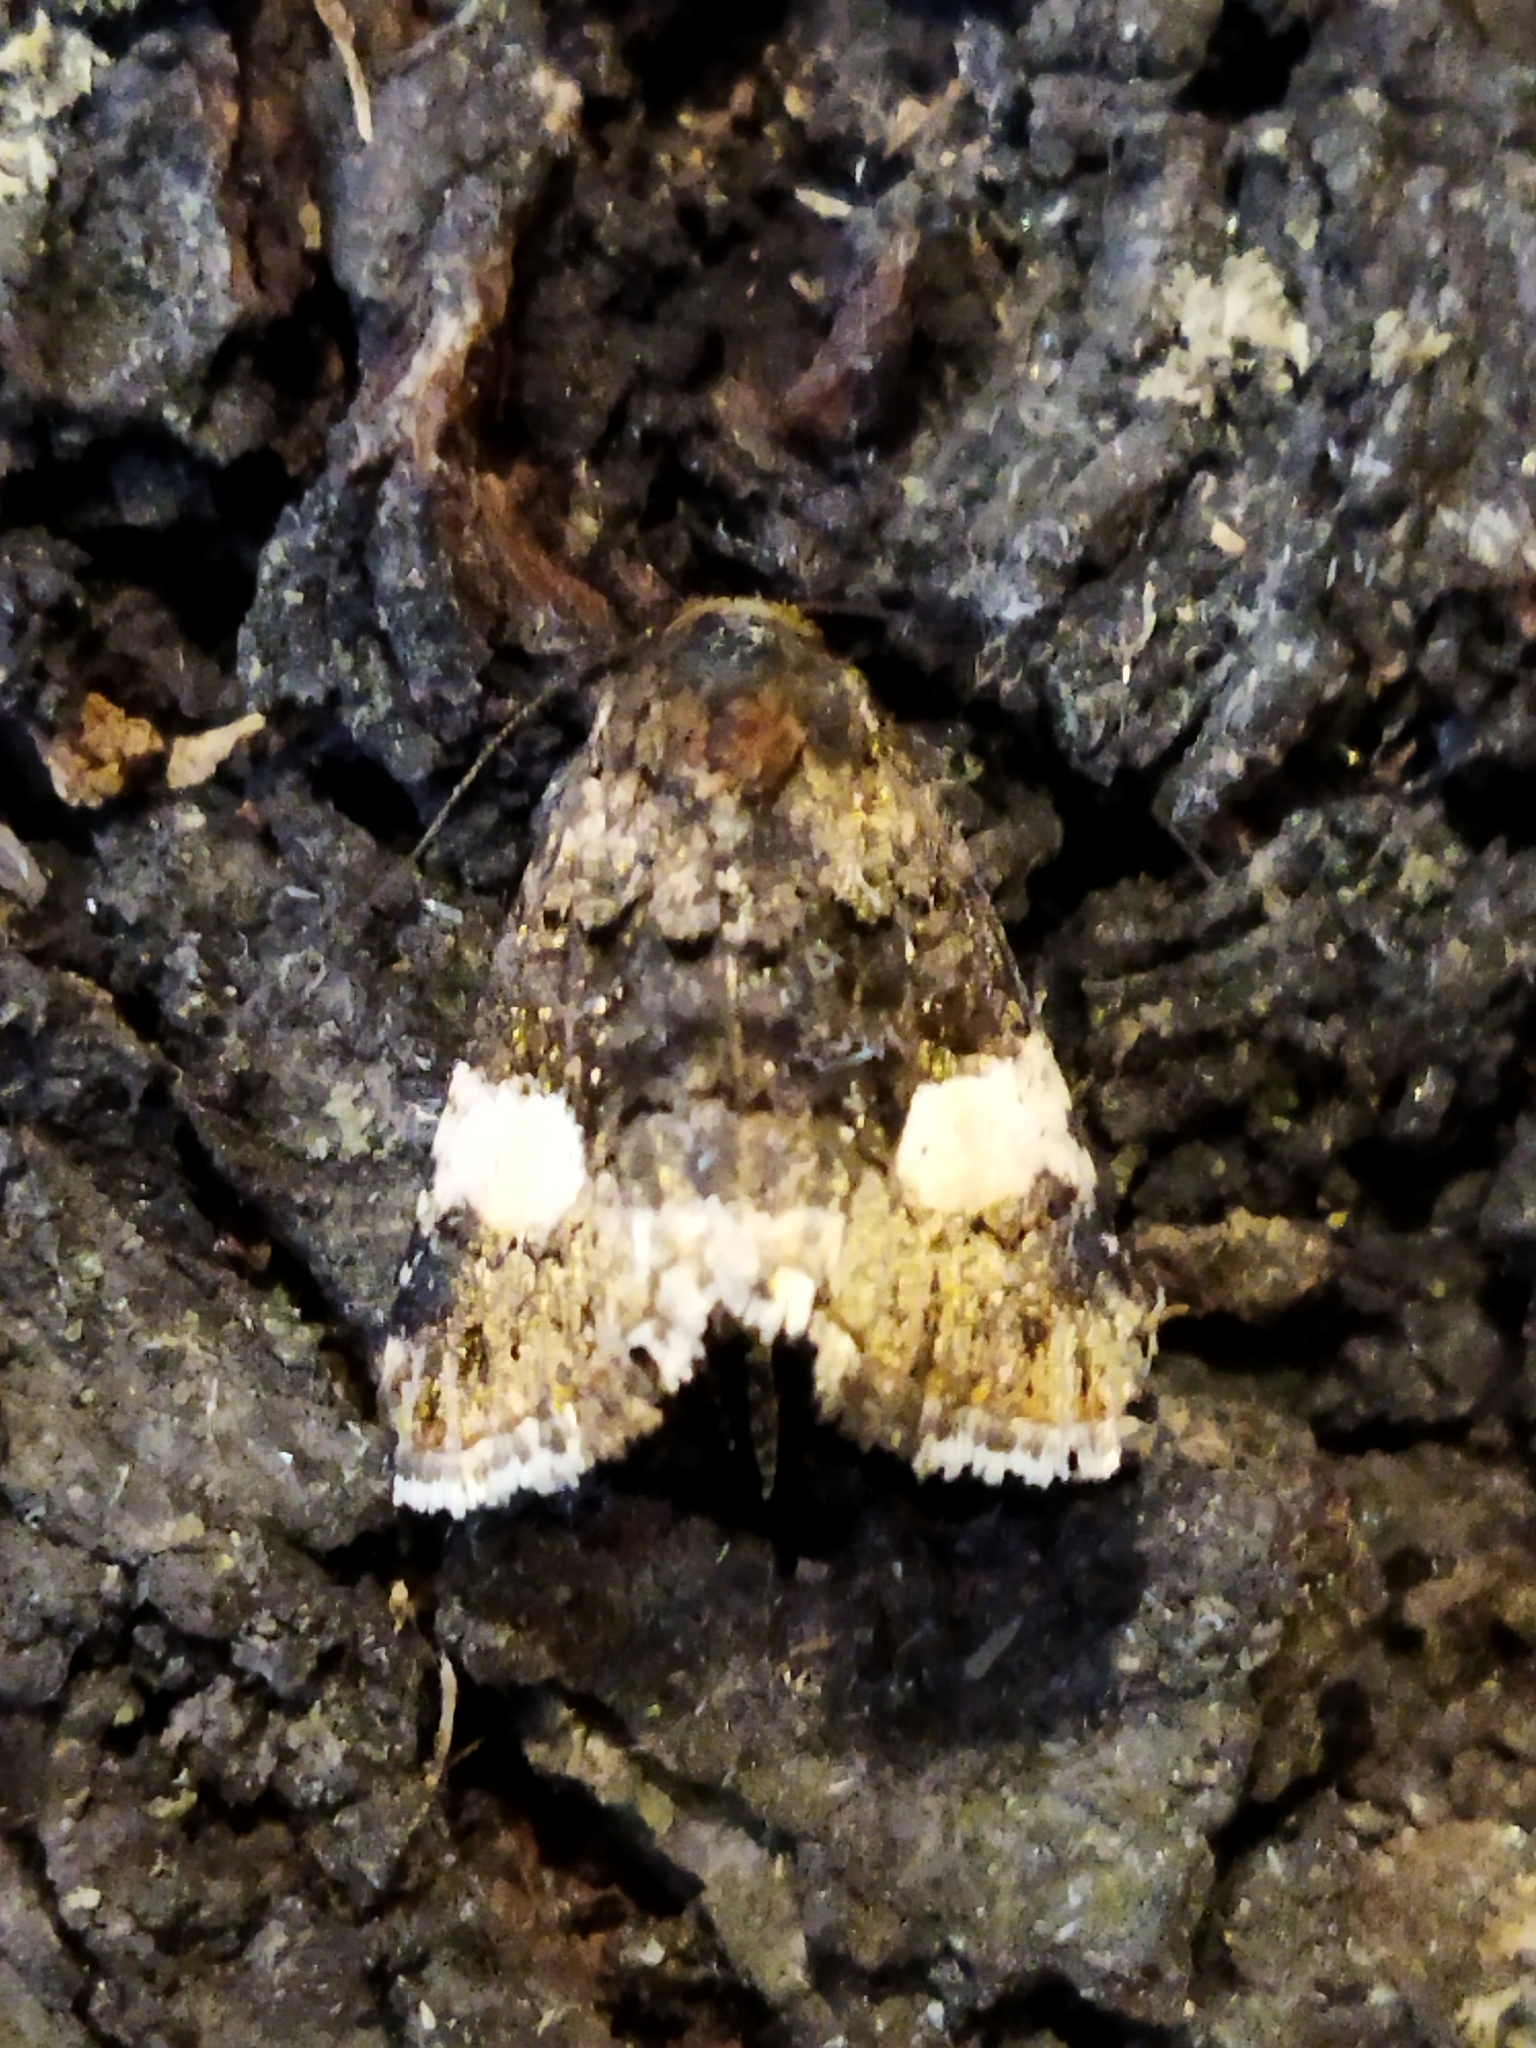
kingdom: Animalia
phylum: Arthropoda
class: Insecta
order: Lepidoptera
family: Erebidae
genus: Tyta
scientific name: Tyta luctuosa
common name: Four-spotted
